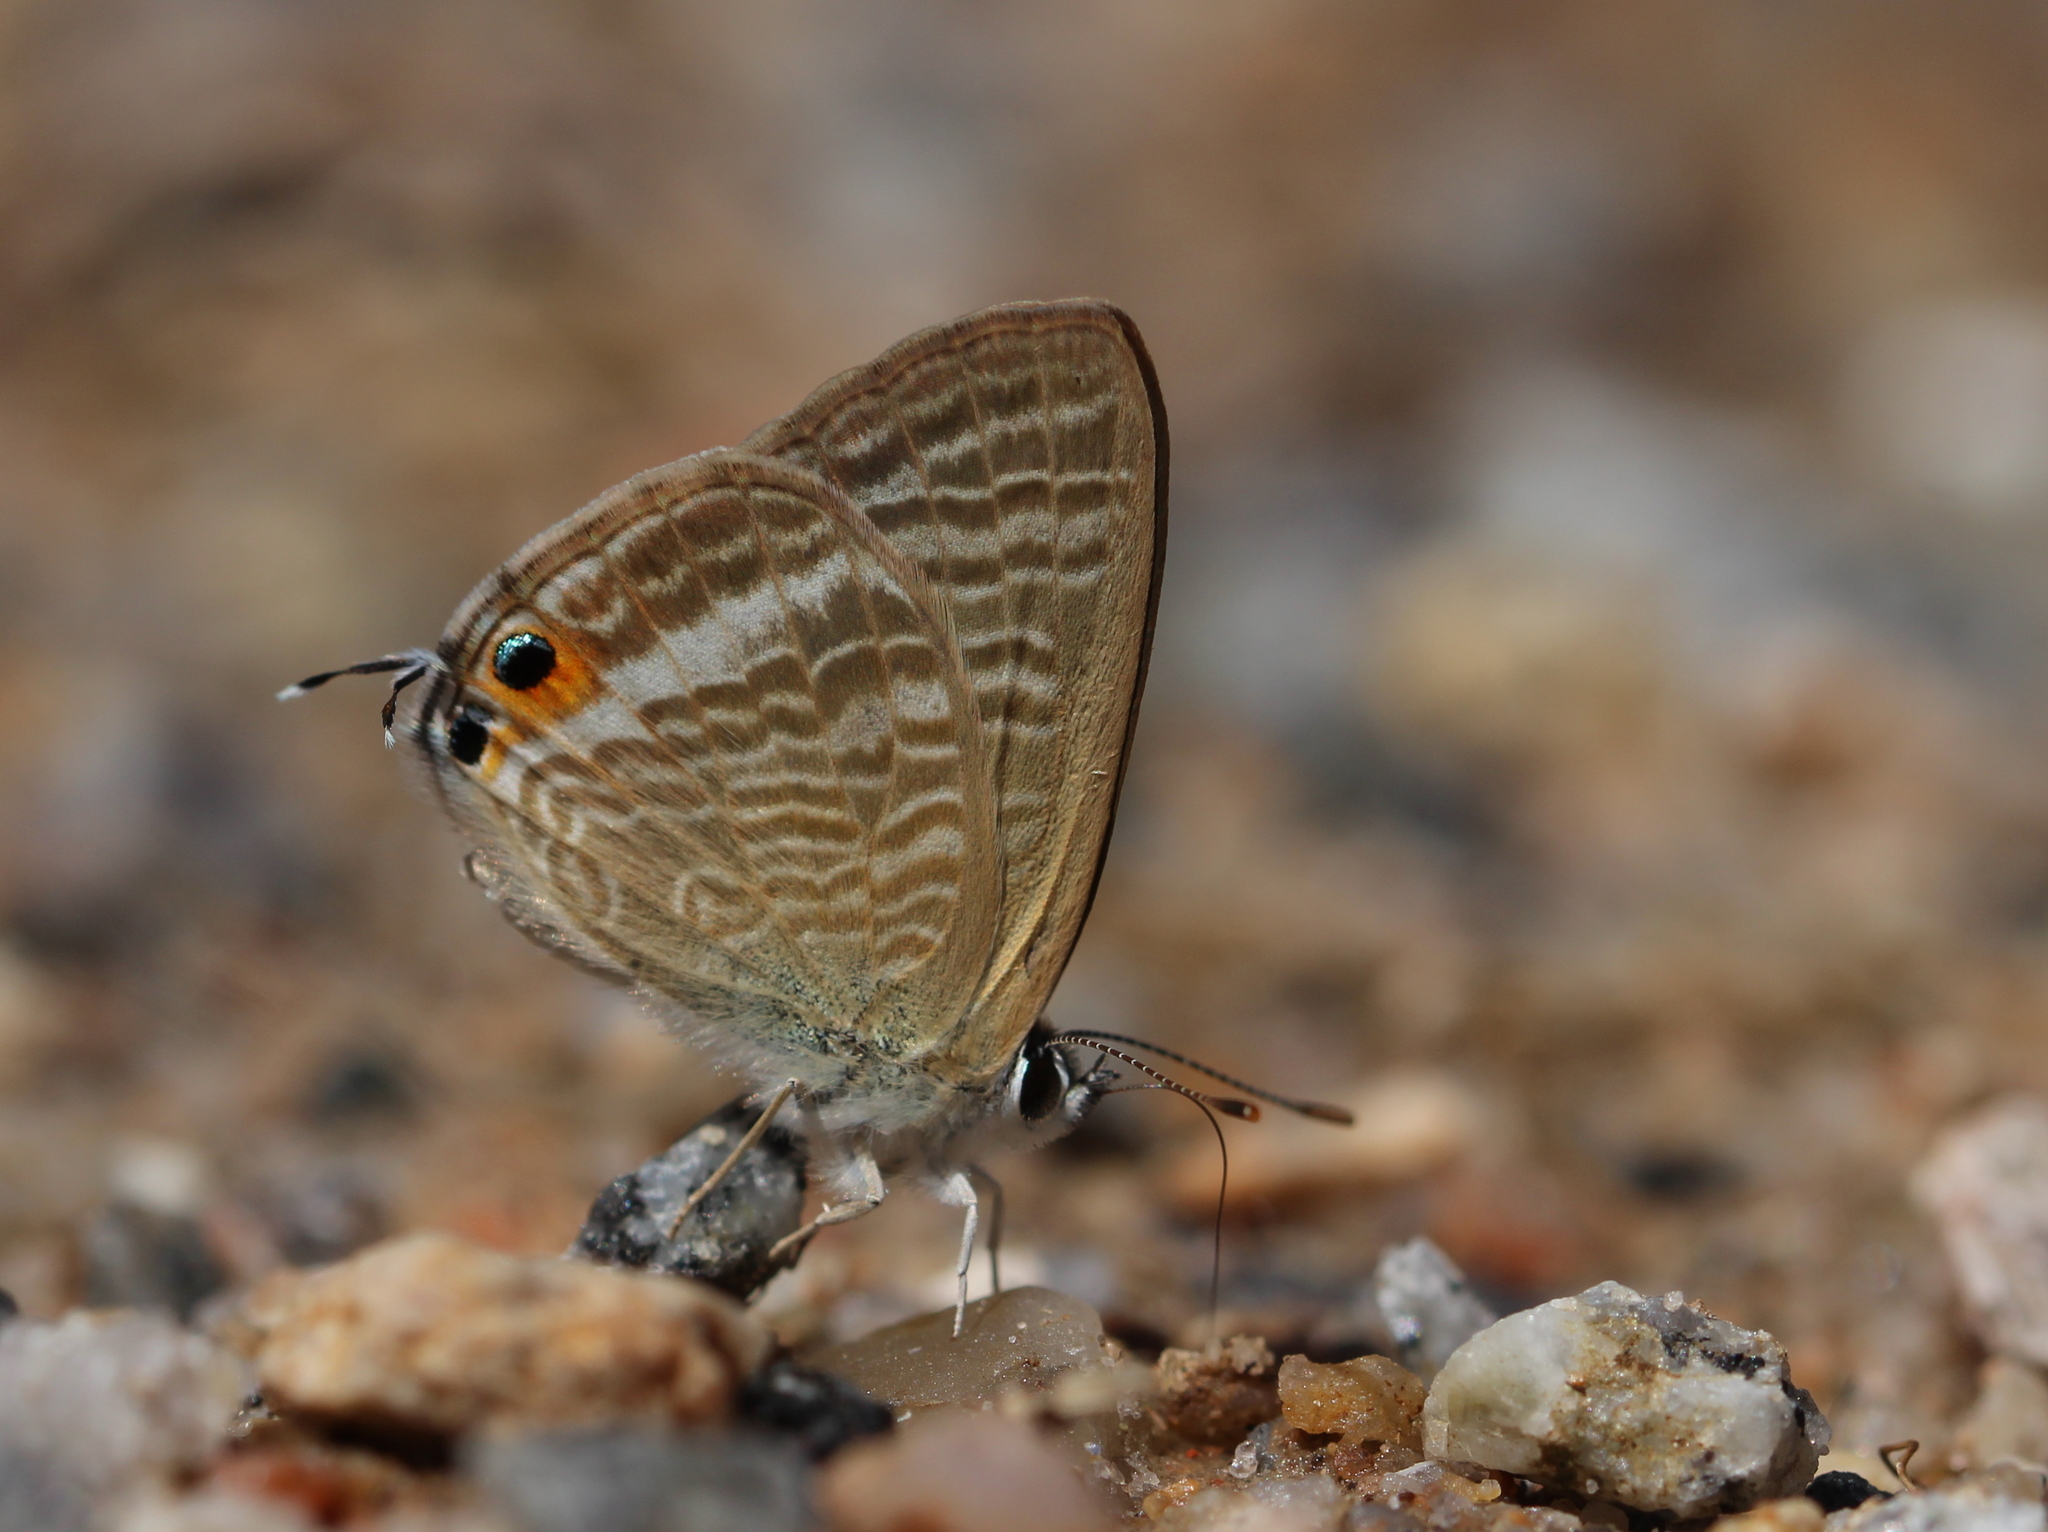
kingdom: Animalia
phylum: Arthropoda
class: Insecta
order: Lepidoptera
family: Lycaenidae
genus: Lampides
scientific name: Lampides boeticus
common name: Long-tailed blue
